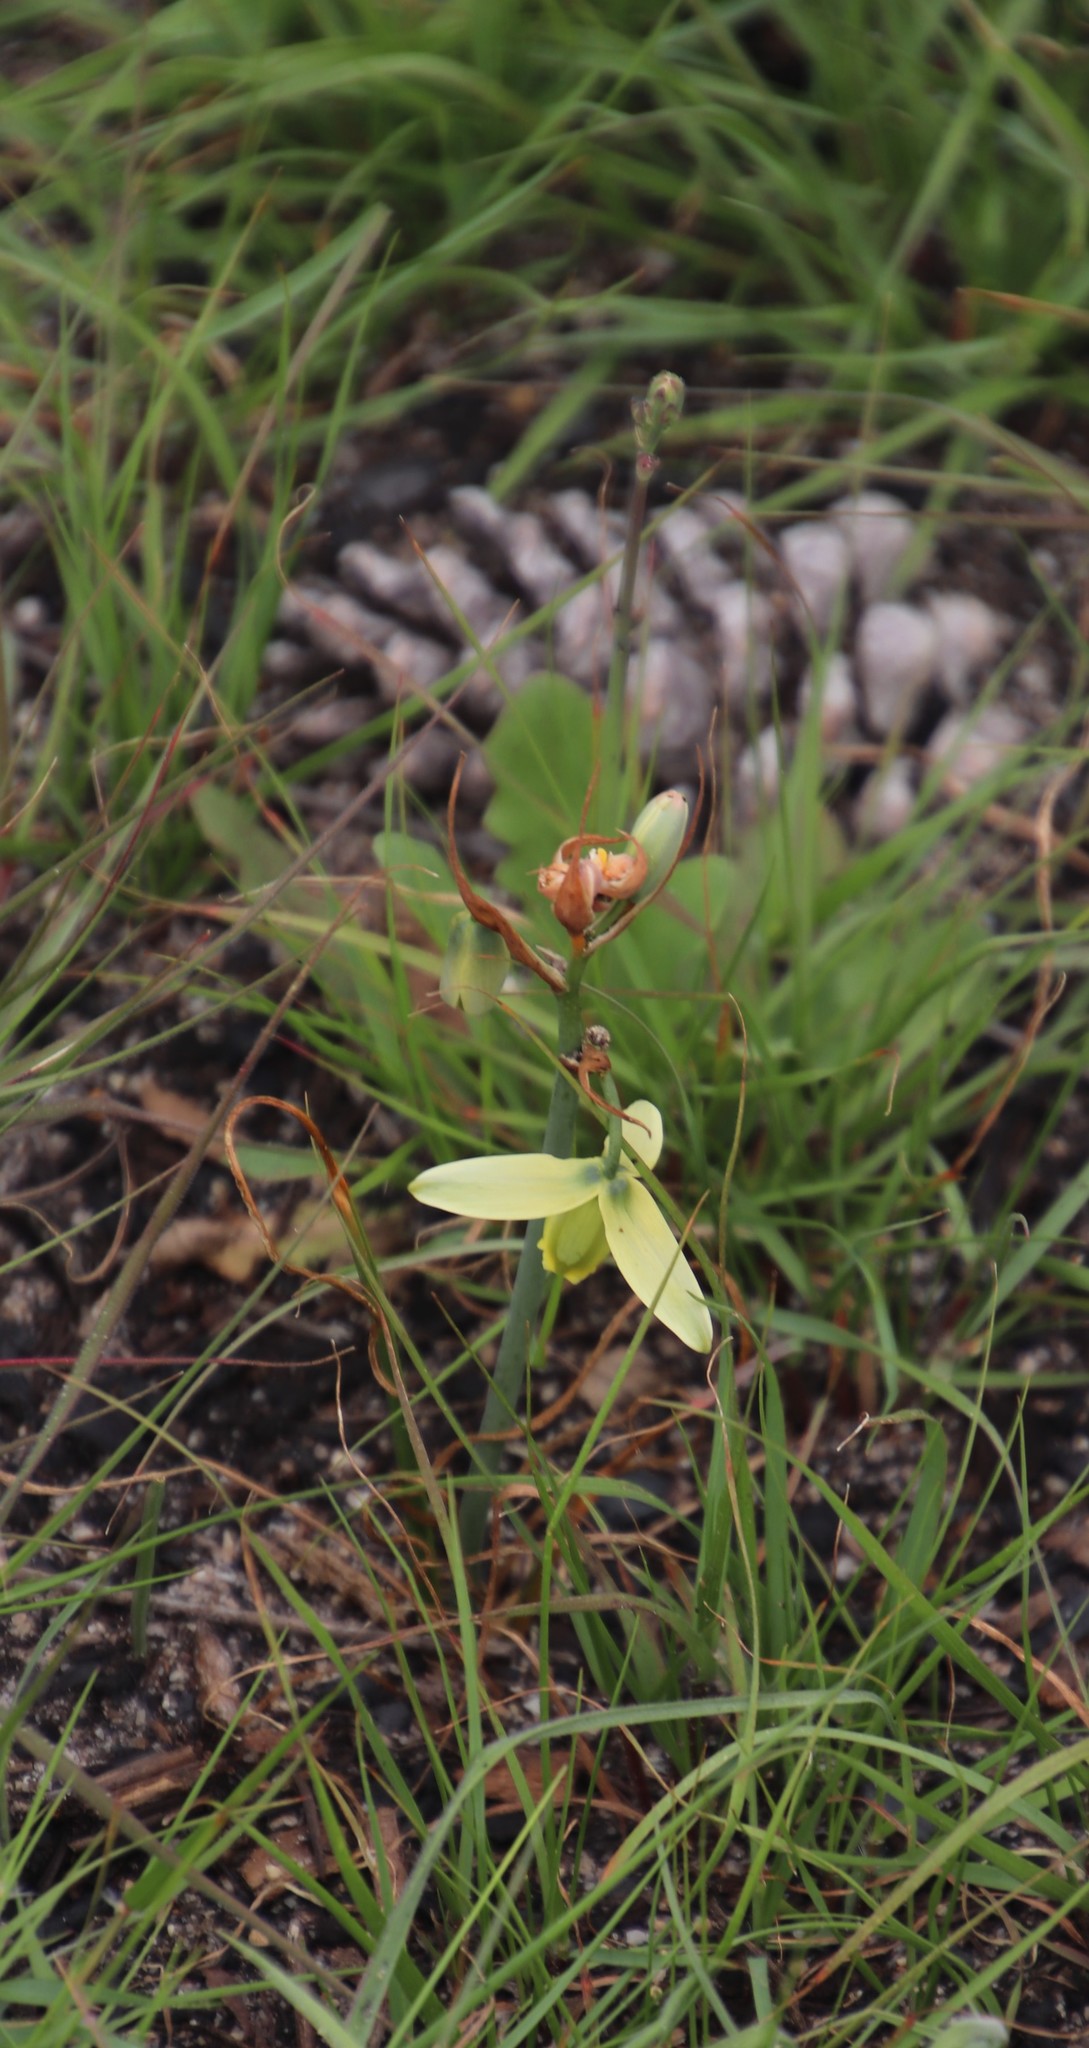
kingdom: Plantae
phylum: Tracheophyta
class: Liliopsida
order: Asparagales
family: Asparagaceae
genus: Albuca
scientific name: Albuca cooperi
